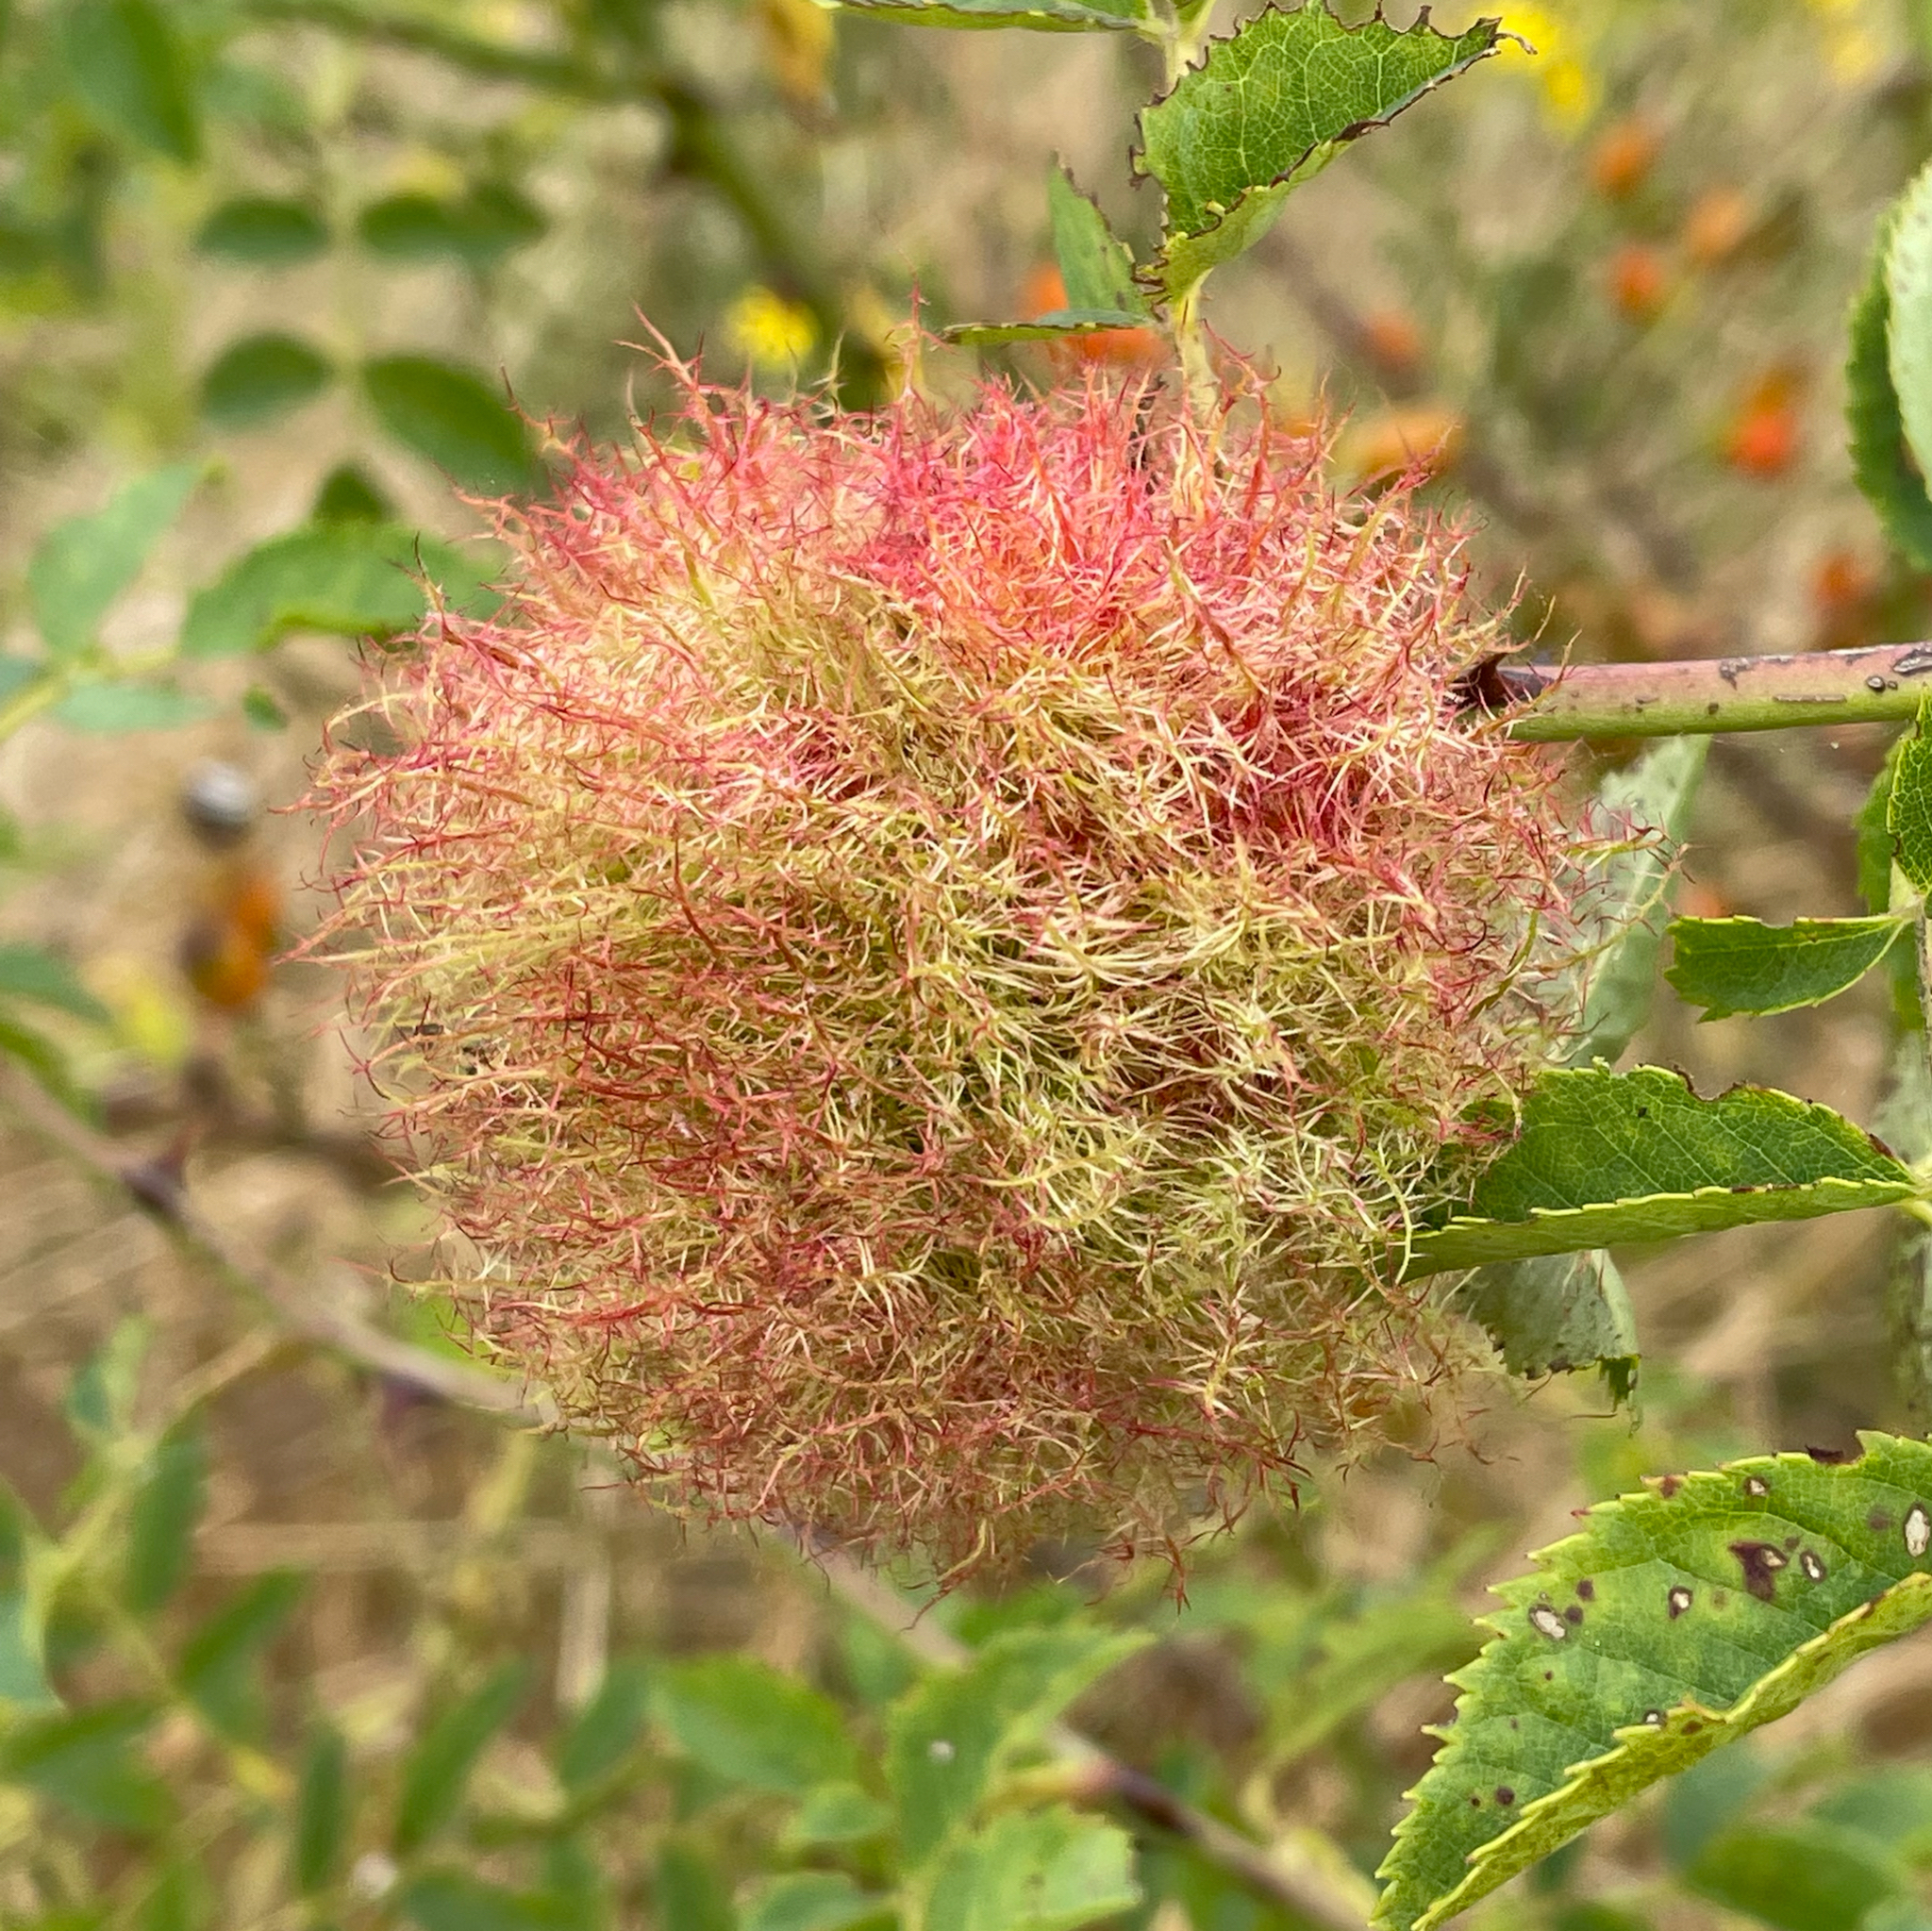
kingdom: Animalia
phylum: Arthropoda
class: Insecta
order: Hymenoptera
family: Cynipidae
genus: Diplolepis
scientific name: Diplolepis rosae
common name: Bedeguar gall
